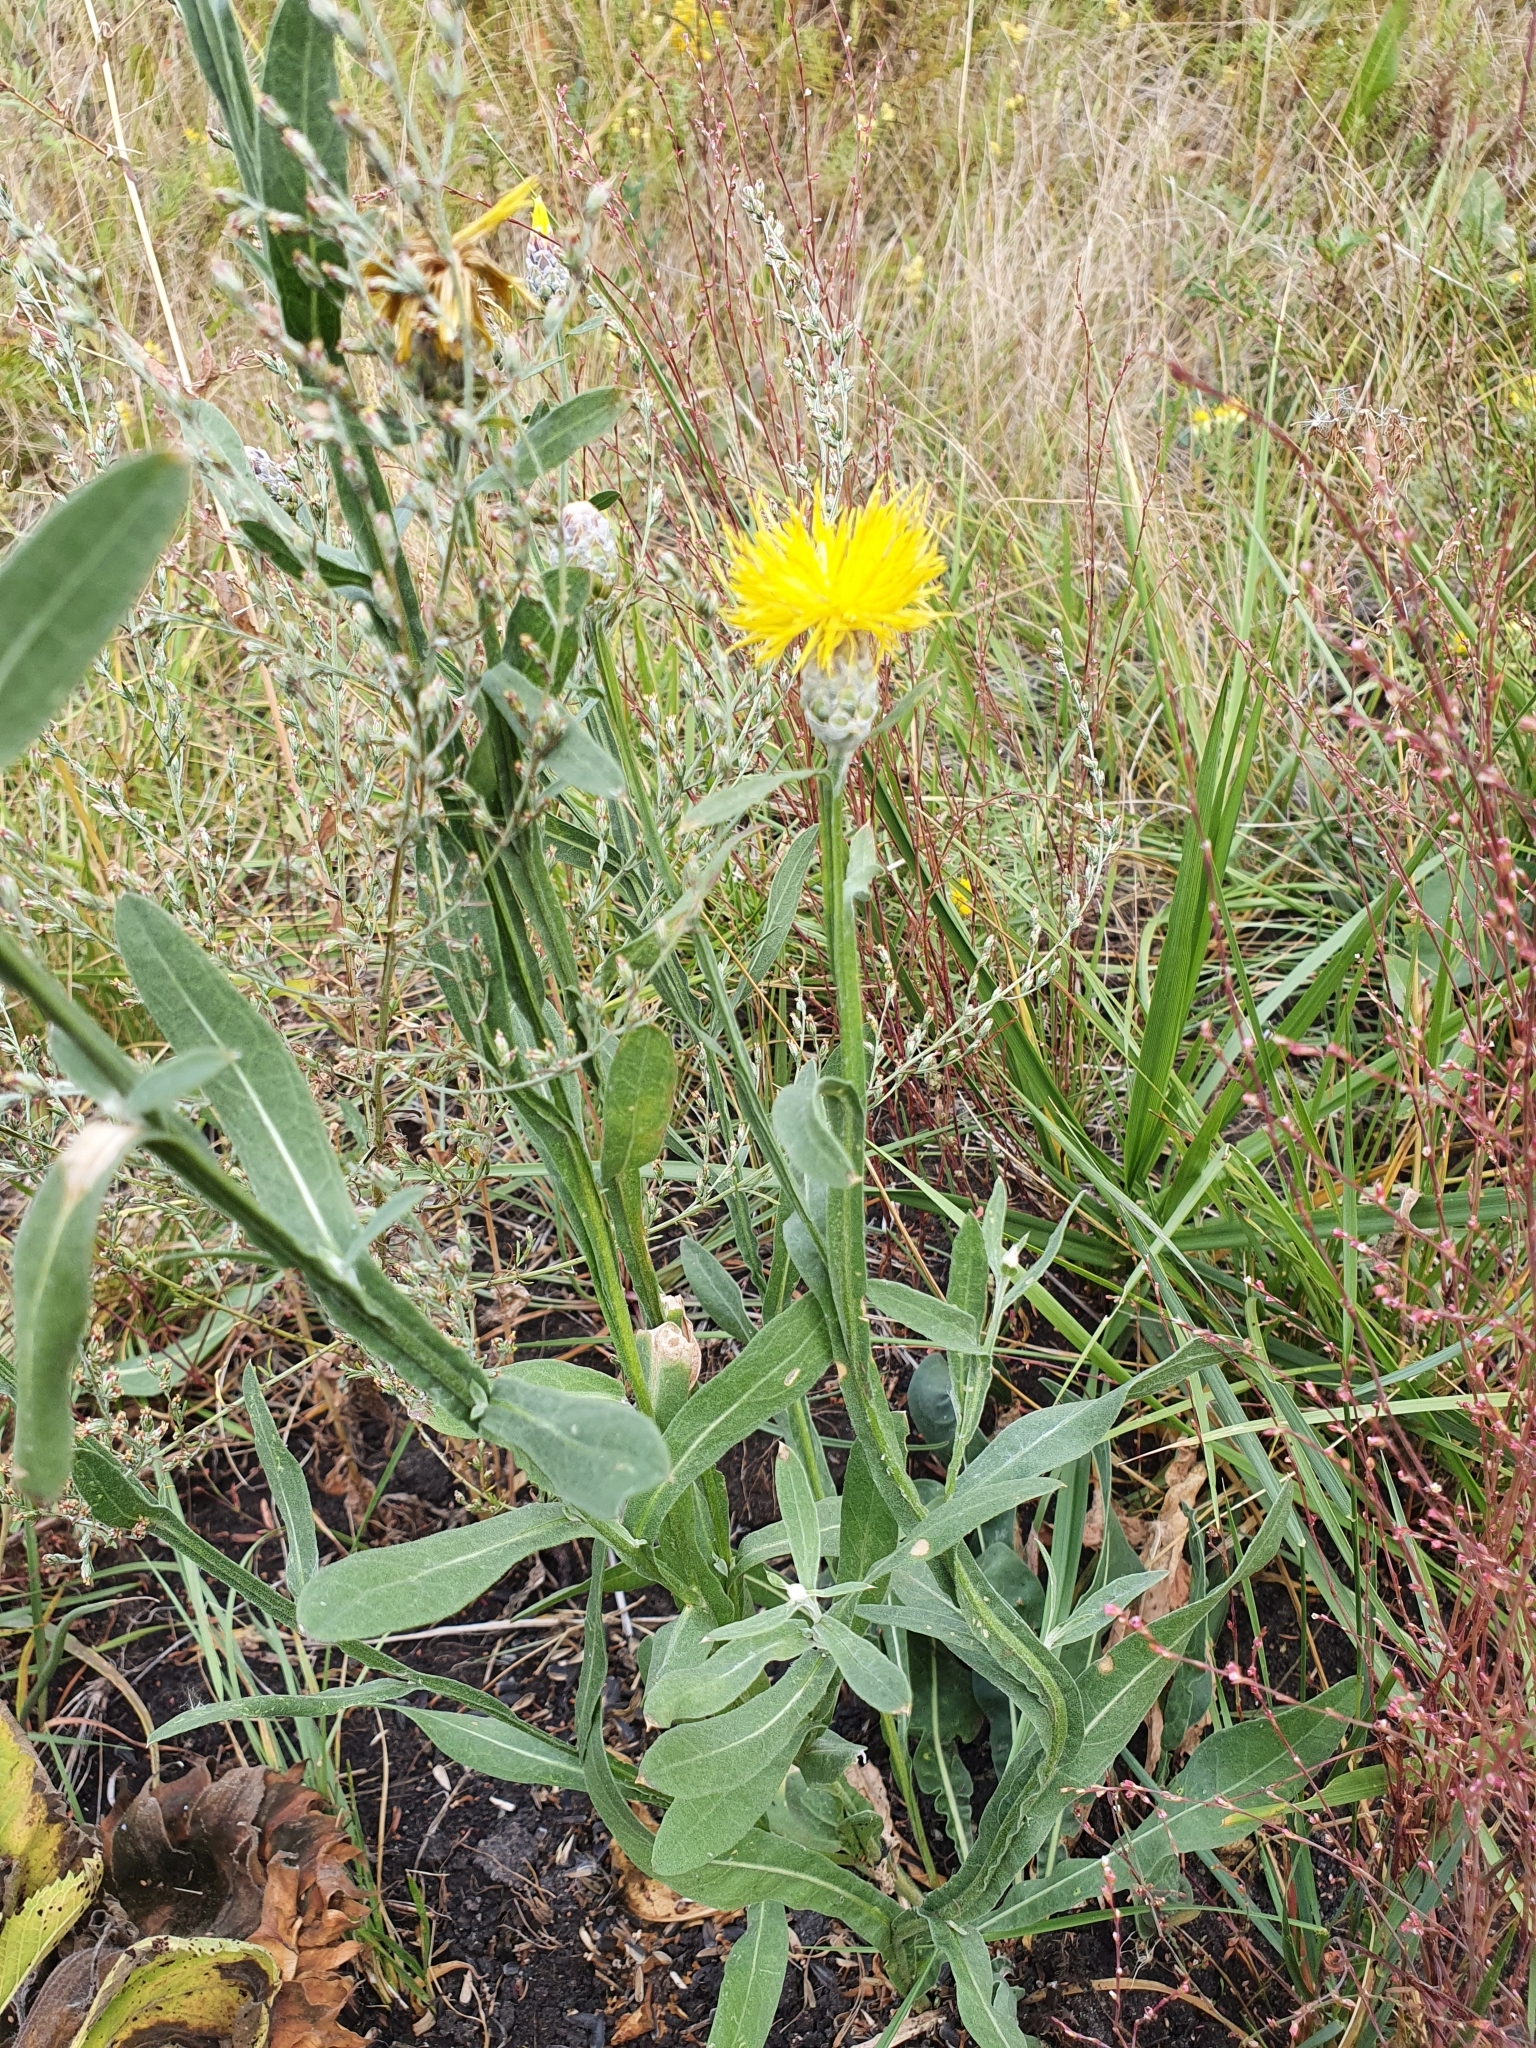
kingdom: Plantae
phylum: Tracheophyta
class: Magnoliopsida
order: Asterales
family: Asteraceae
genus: Centaurea
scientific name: Centaurea glastifolia
